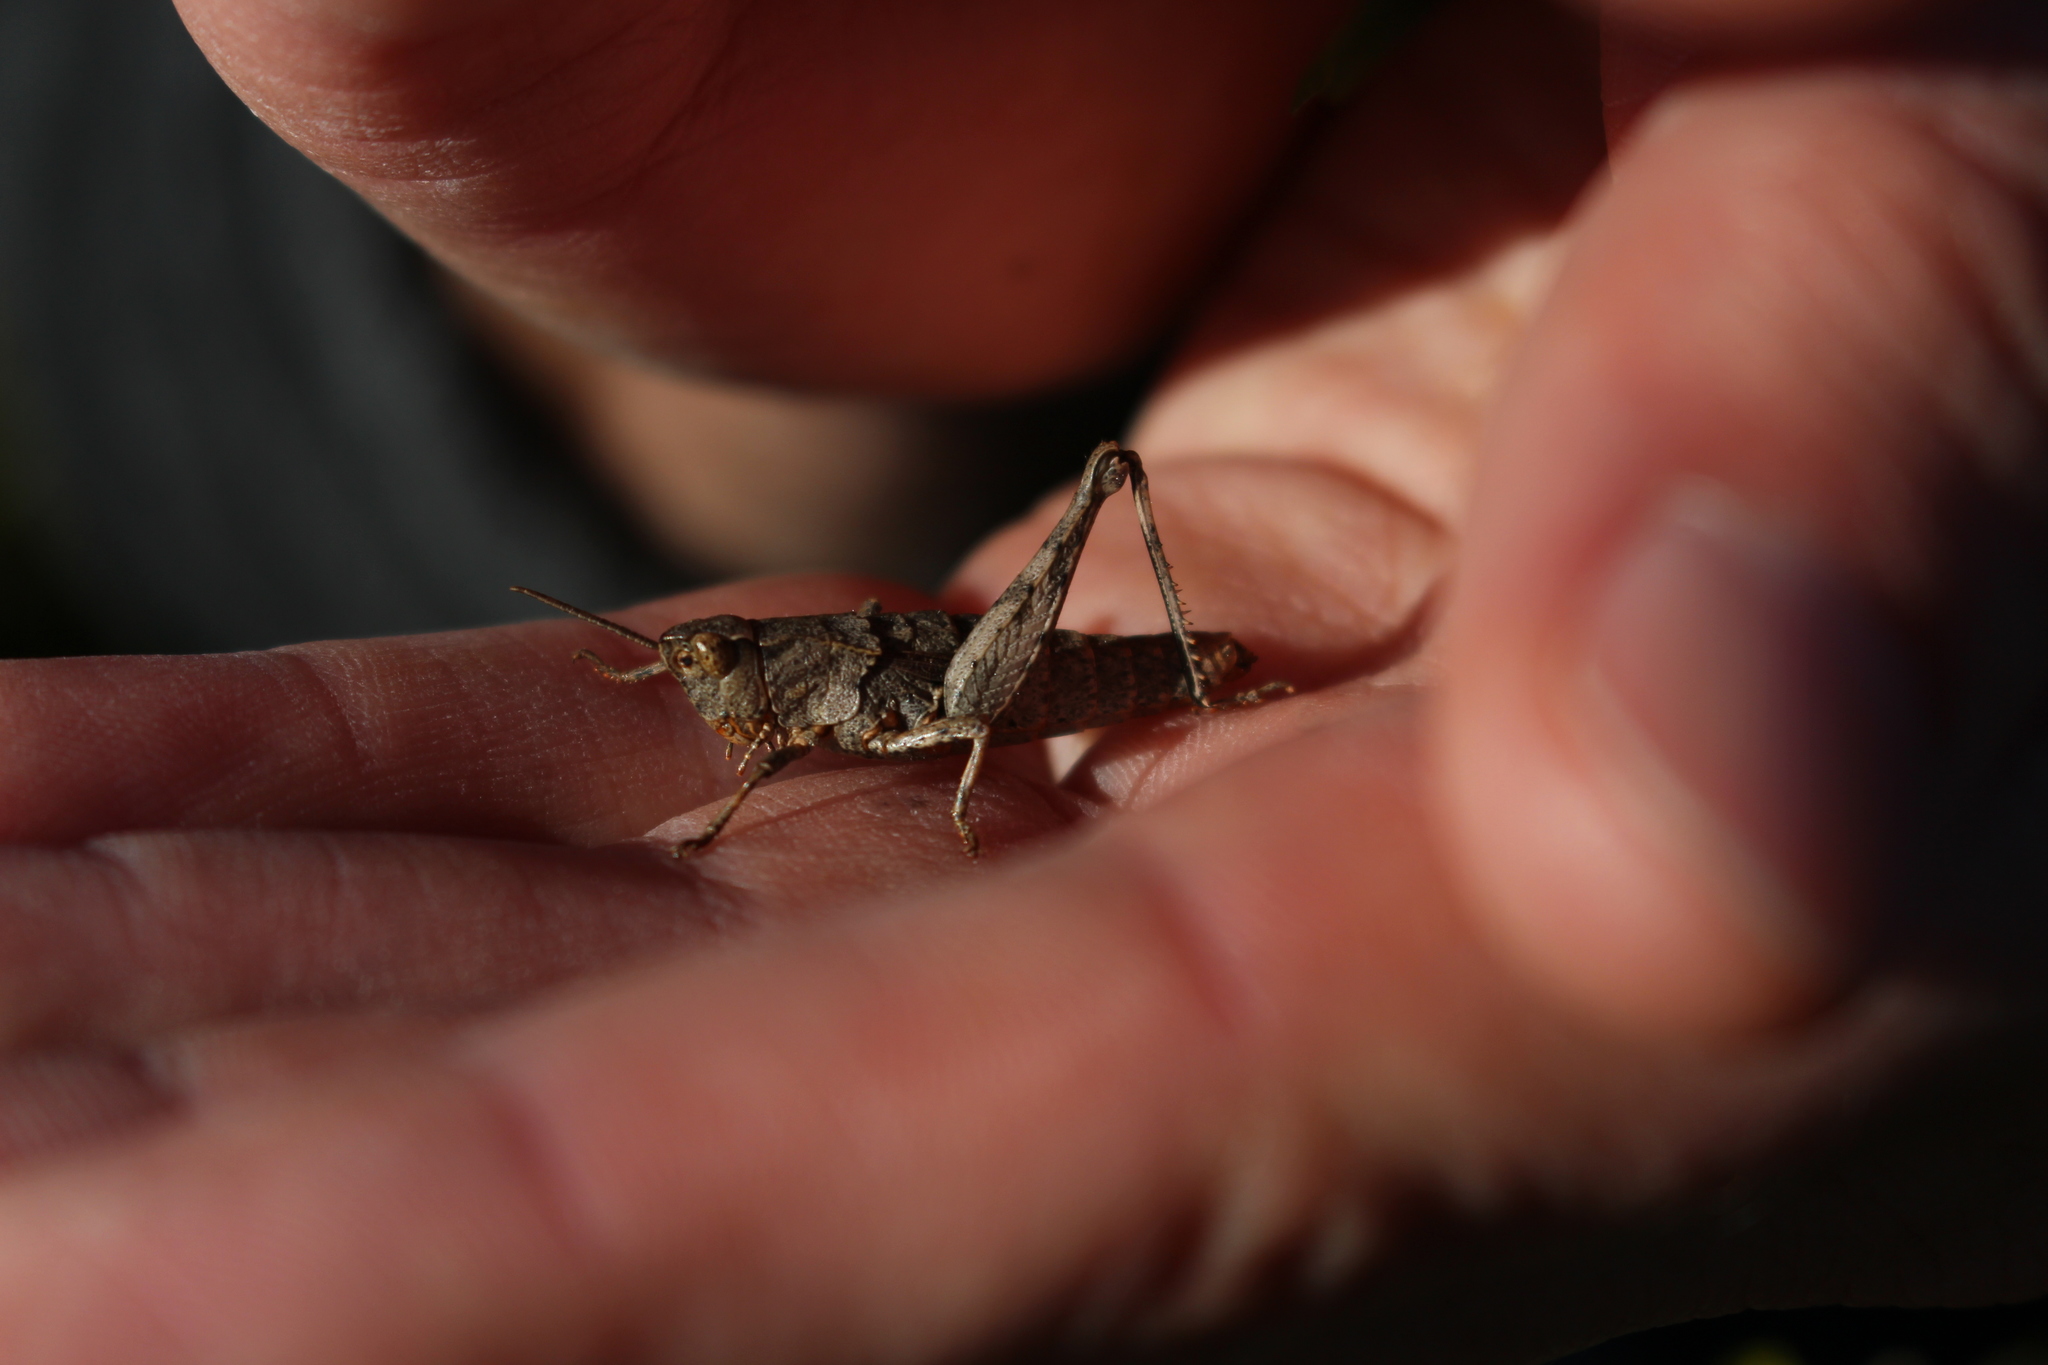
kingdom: Animalia
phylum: Arthropoda
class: Insecta
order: Orthoptera
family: Acrididae
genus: Sigaus
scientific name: Sigaus campestris
